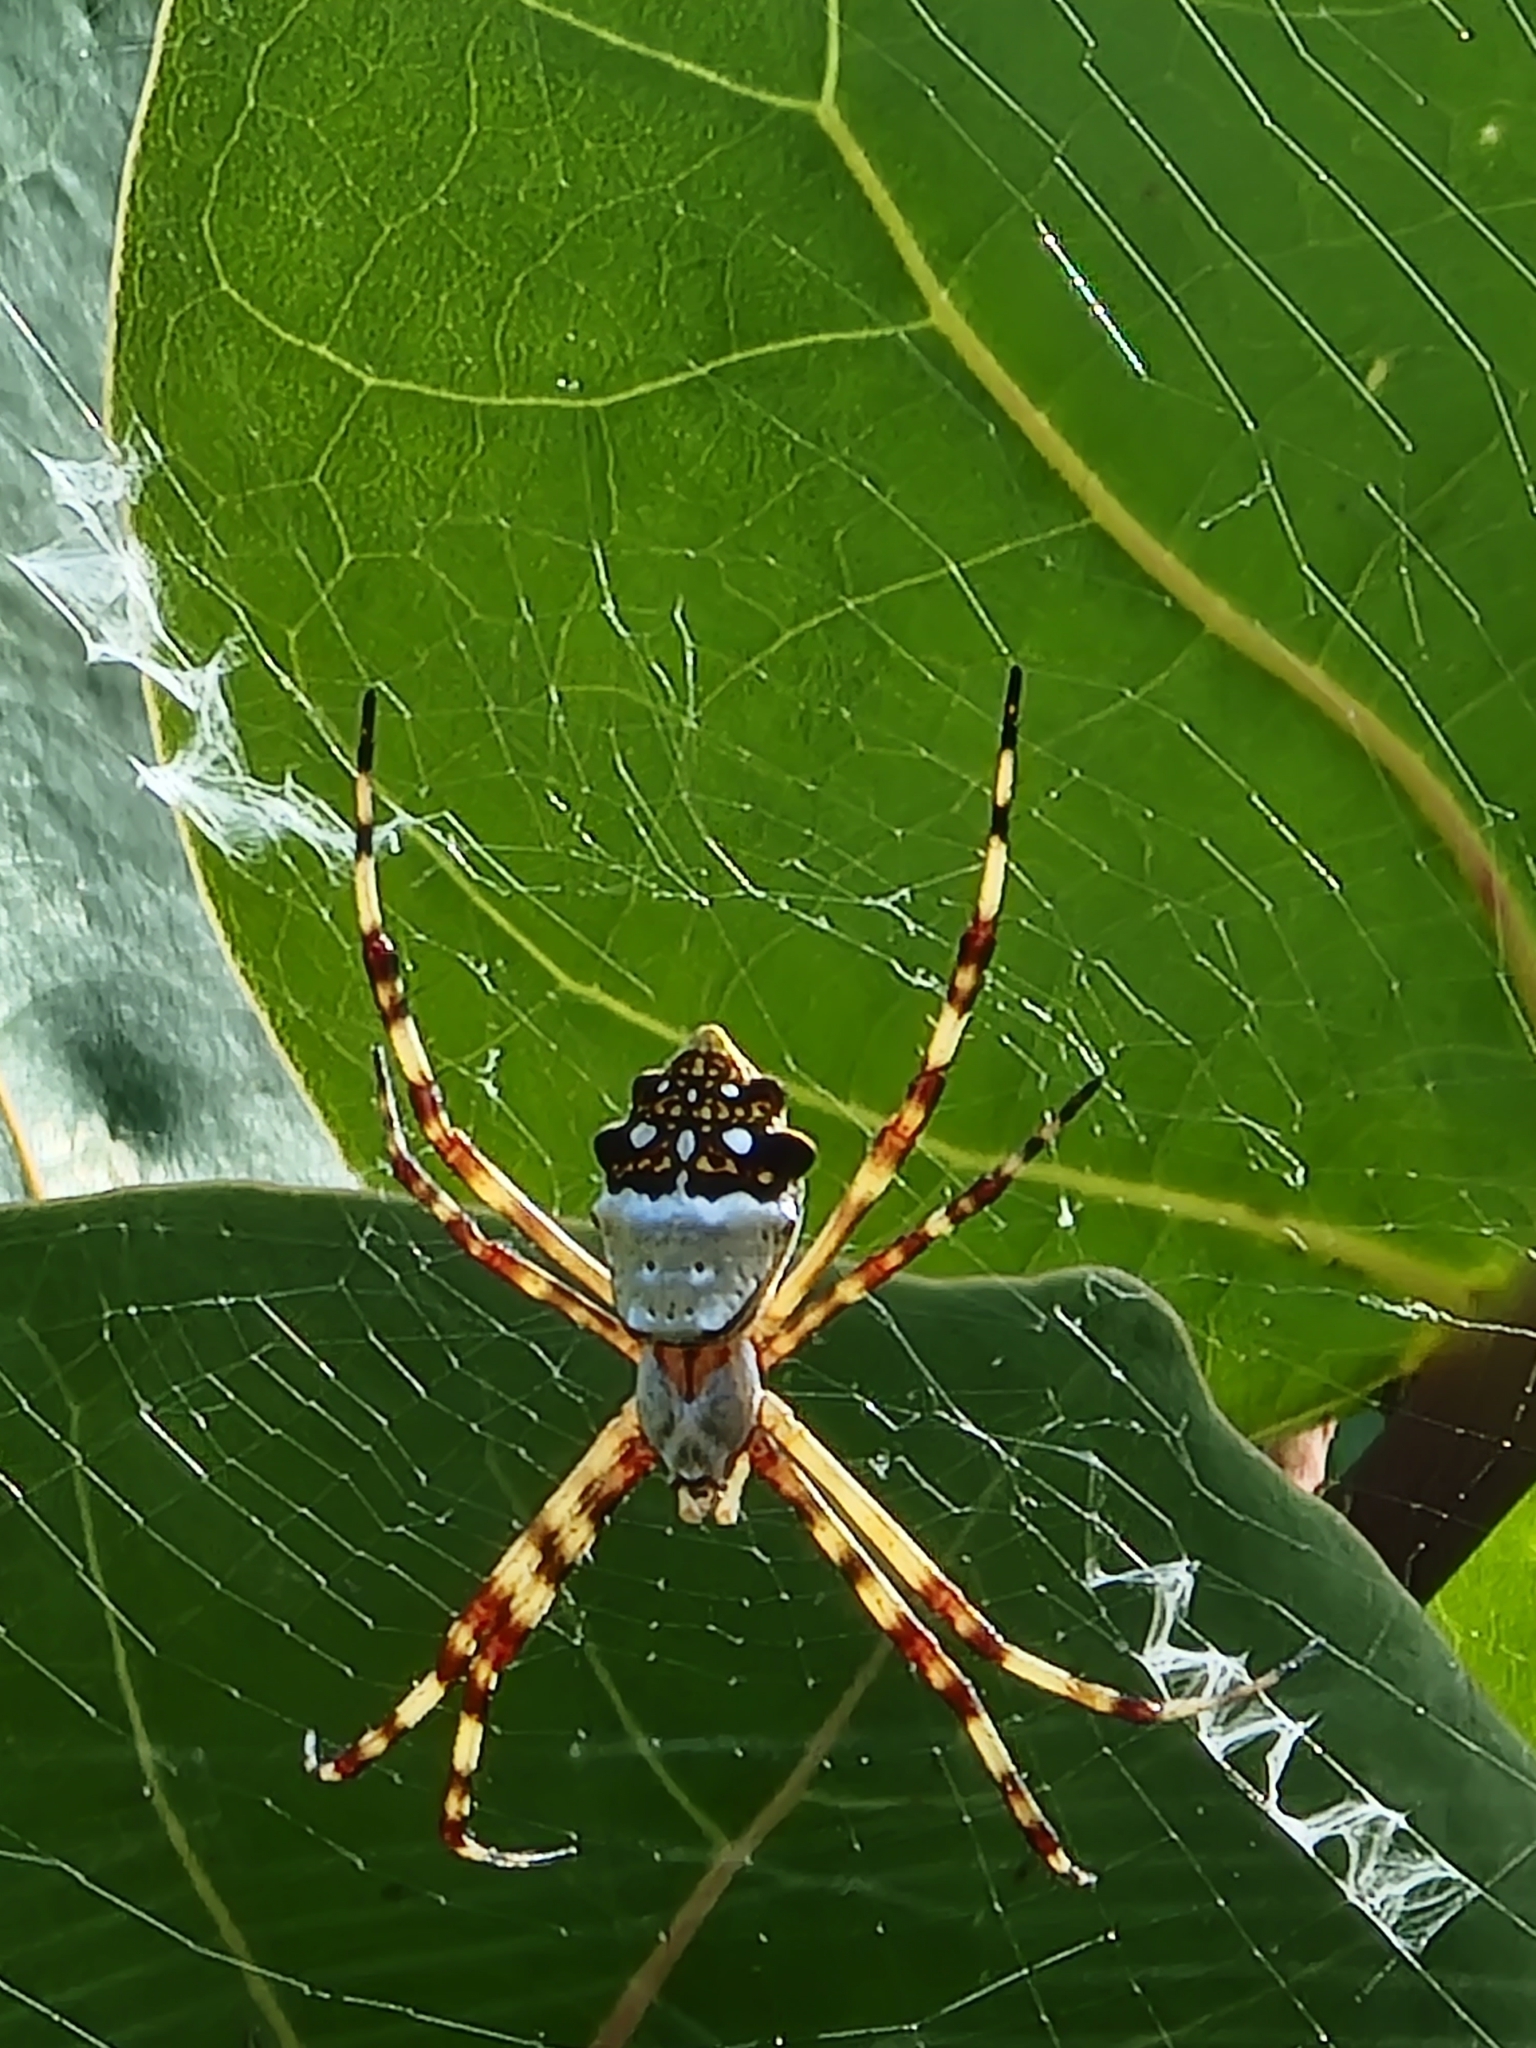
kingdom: Animalia
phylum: Arthropoda
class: Arachnida
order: Araneae
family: Araneidae
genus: Argiope
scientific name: Argiope argentata
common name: Orb weavers
